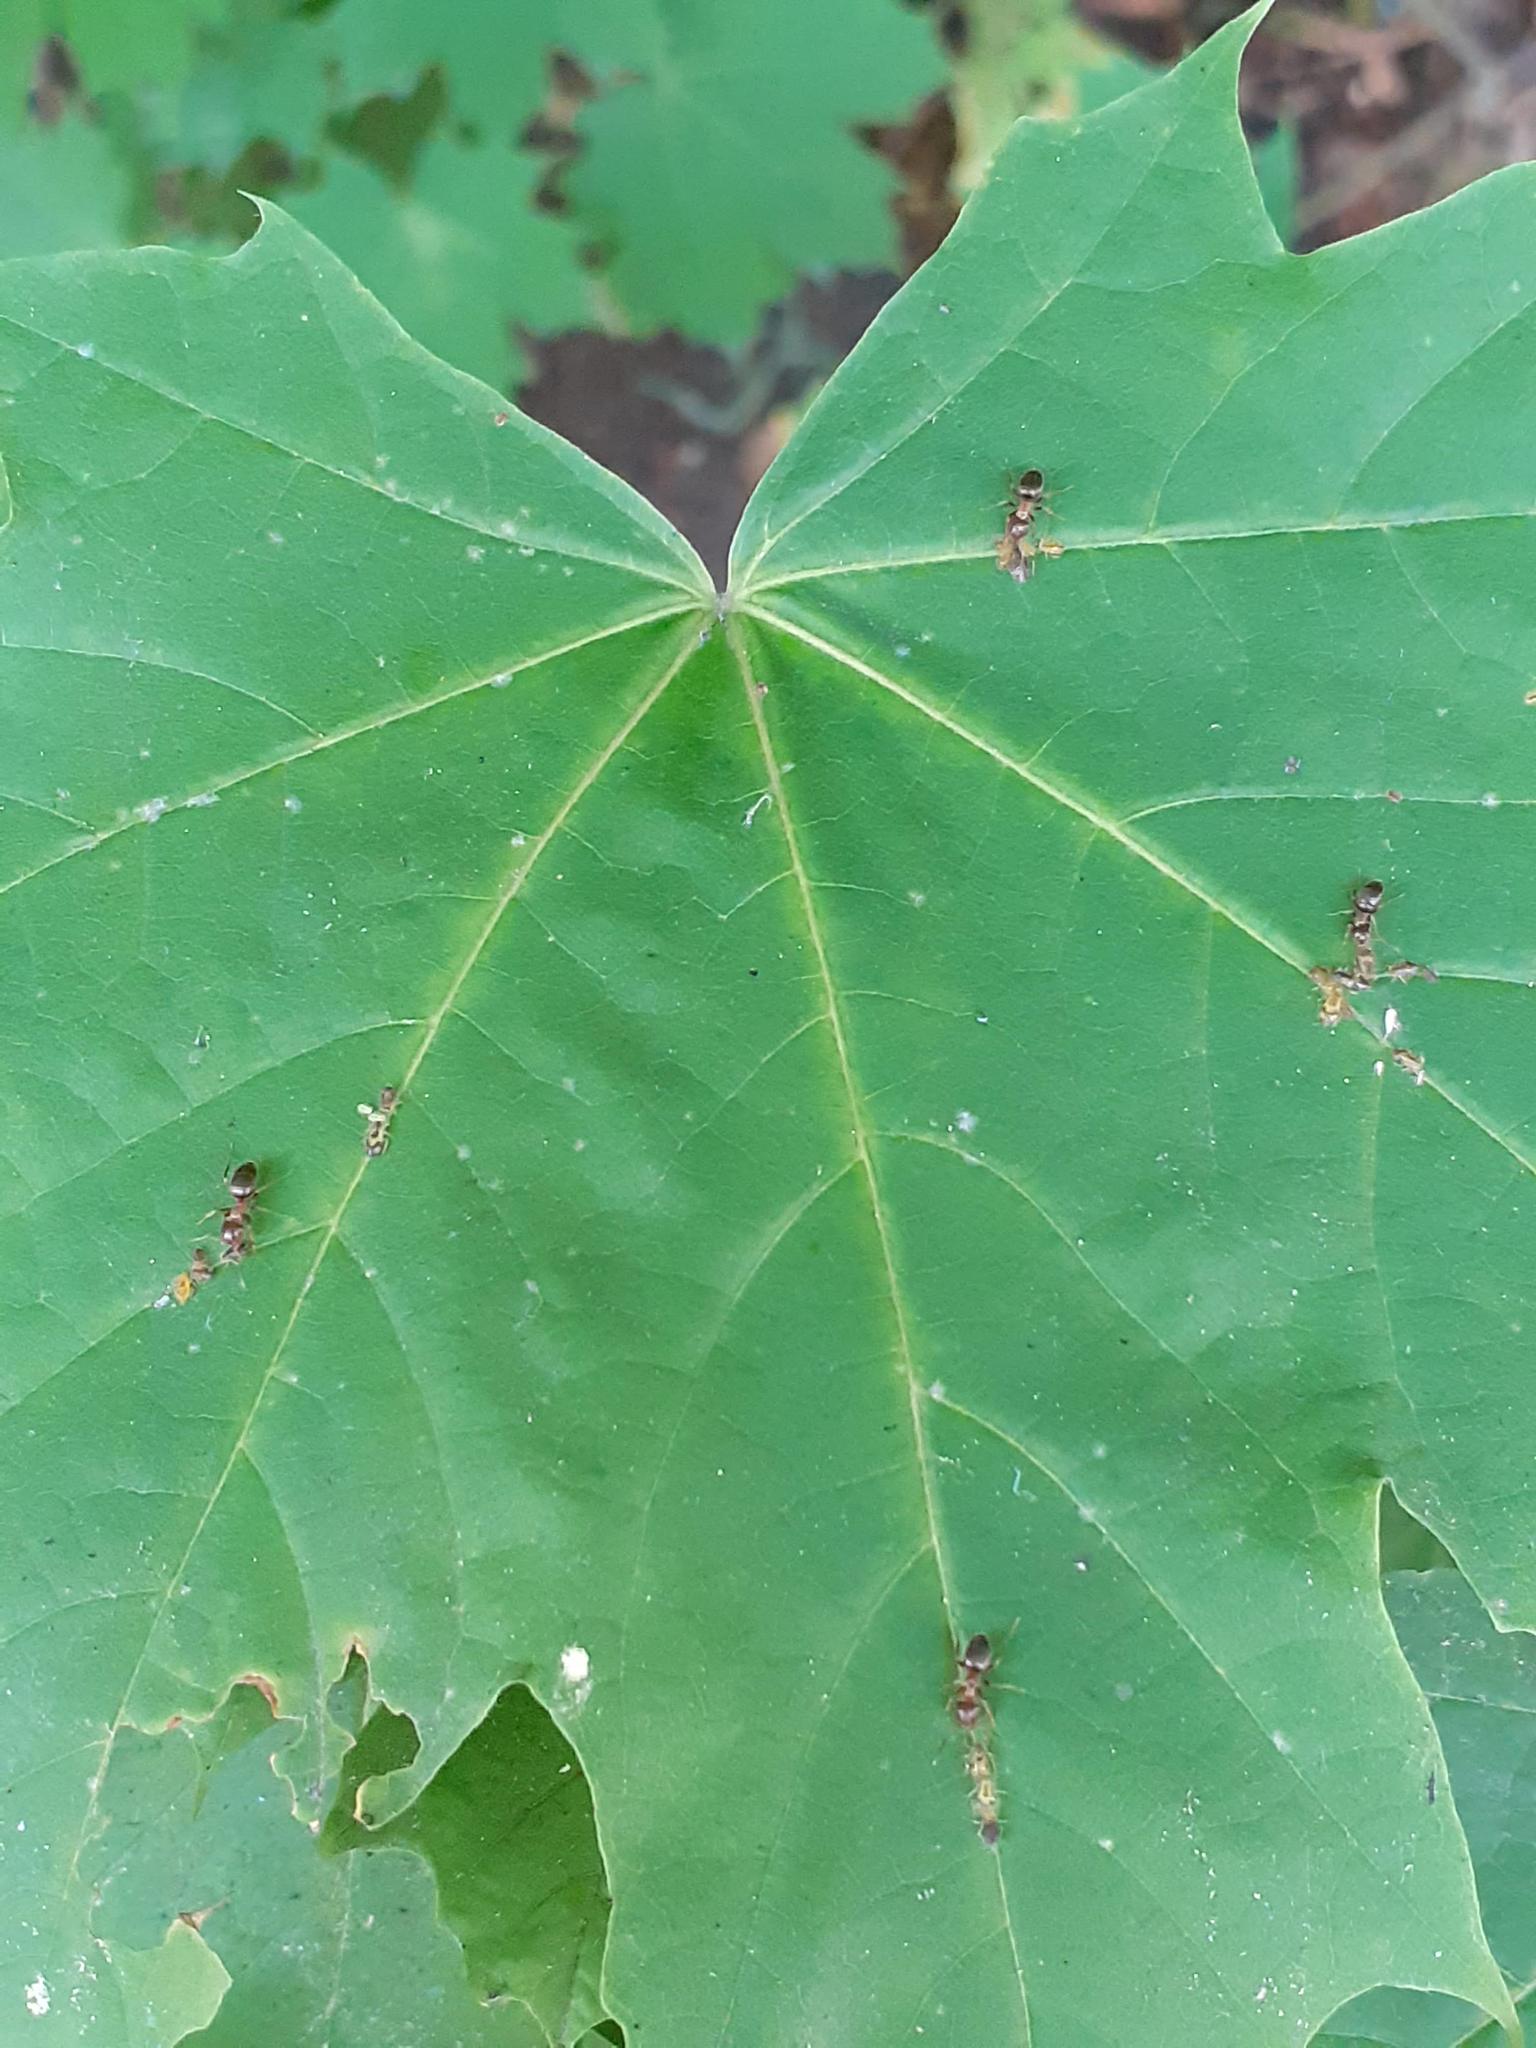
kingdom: Animalia
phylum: Arthropoda
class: Insecta
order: Hymenoptera
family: Formicidae
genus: Lasius
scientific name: Lasius brunneus
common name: Brown ant
